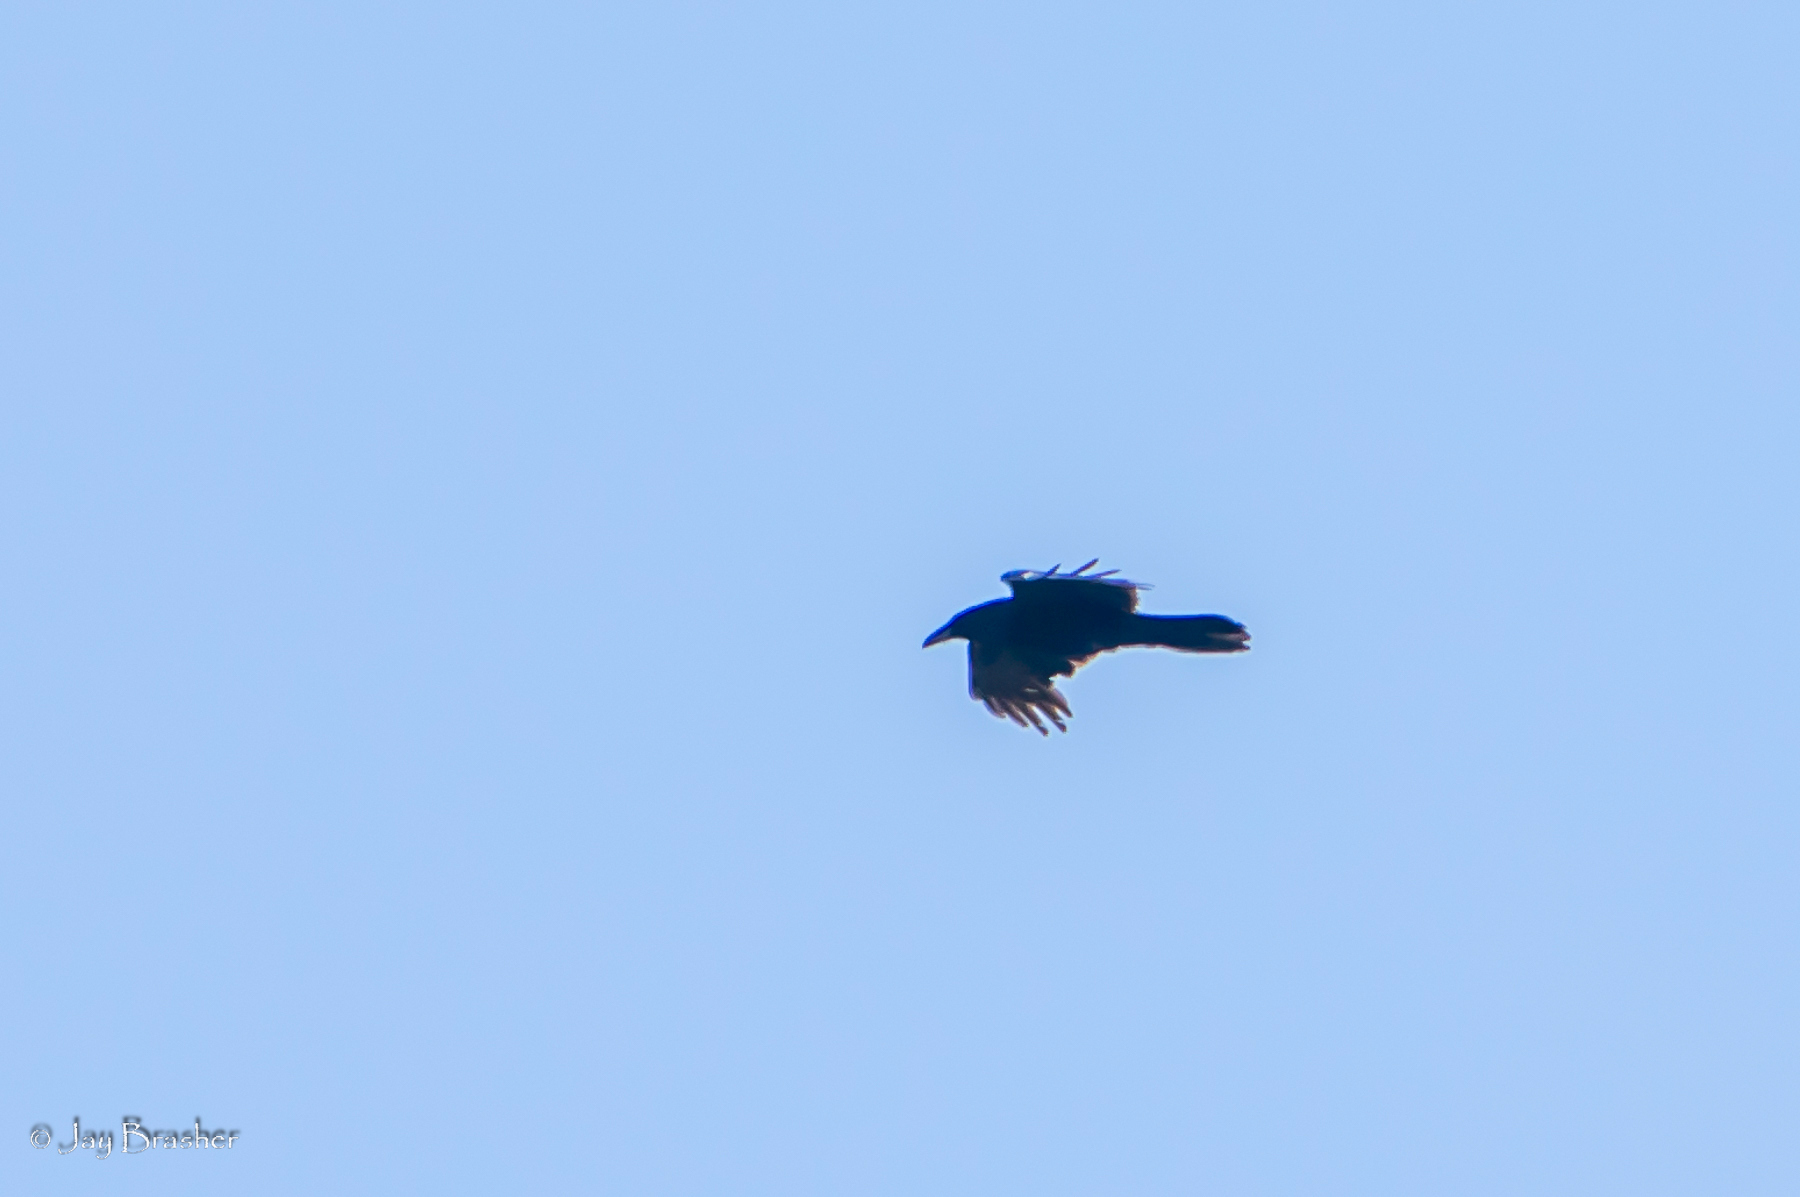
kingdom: Animalia
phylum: Chordata
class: Aves
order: Passeriformes
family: Corvidae
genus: Corvus
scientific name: Corvus corax
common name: Common raven
